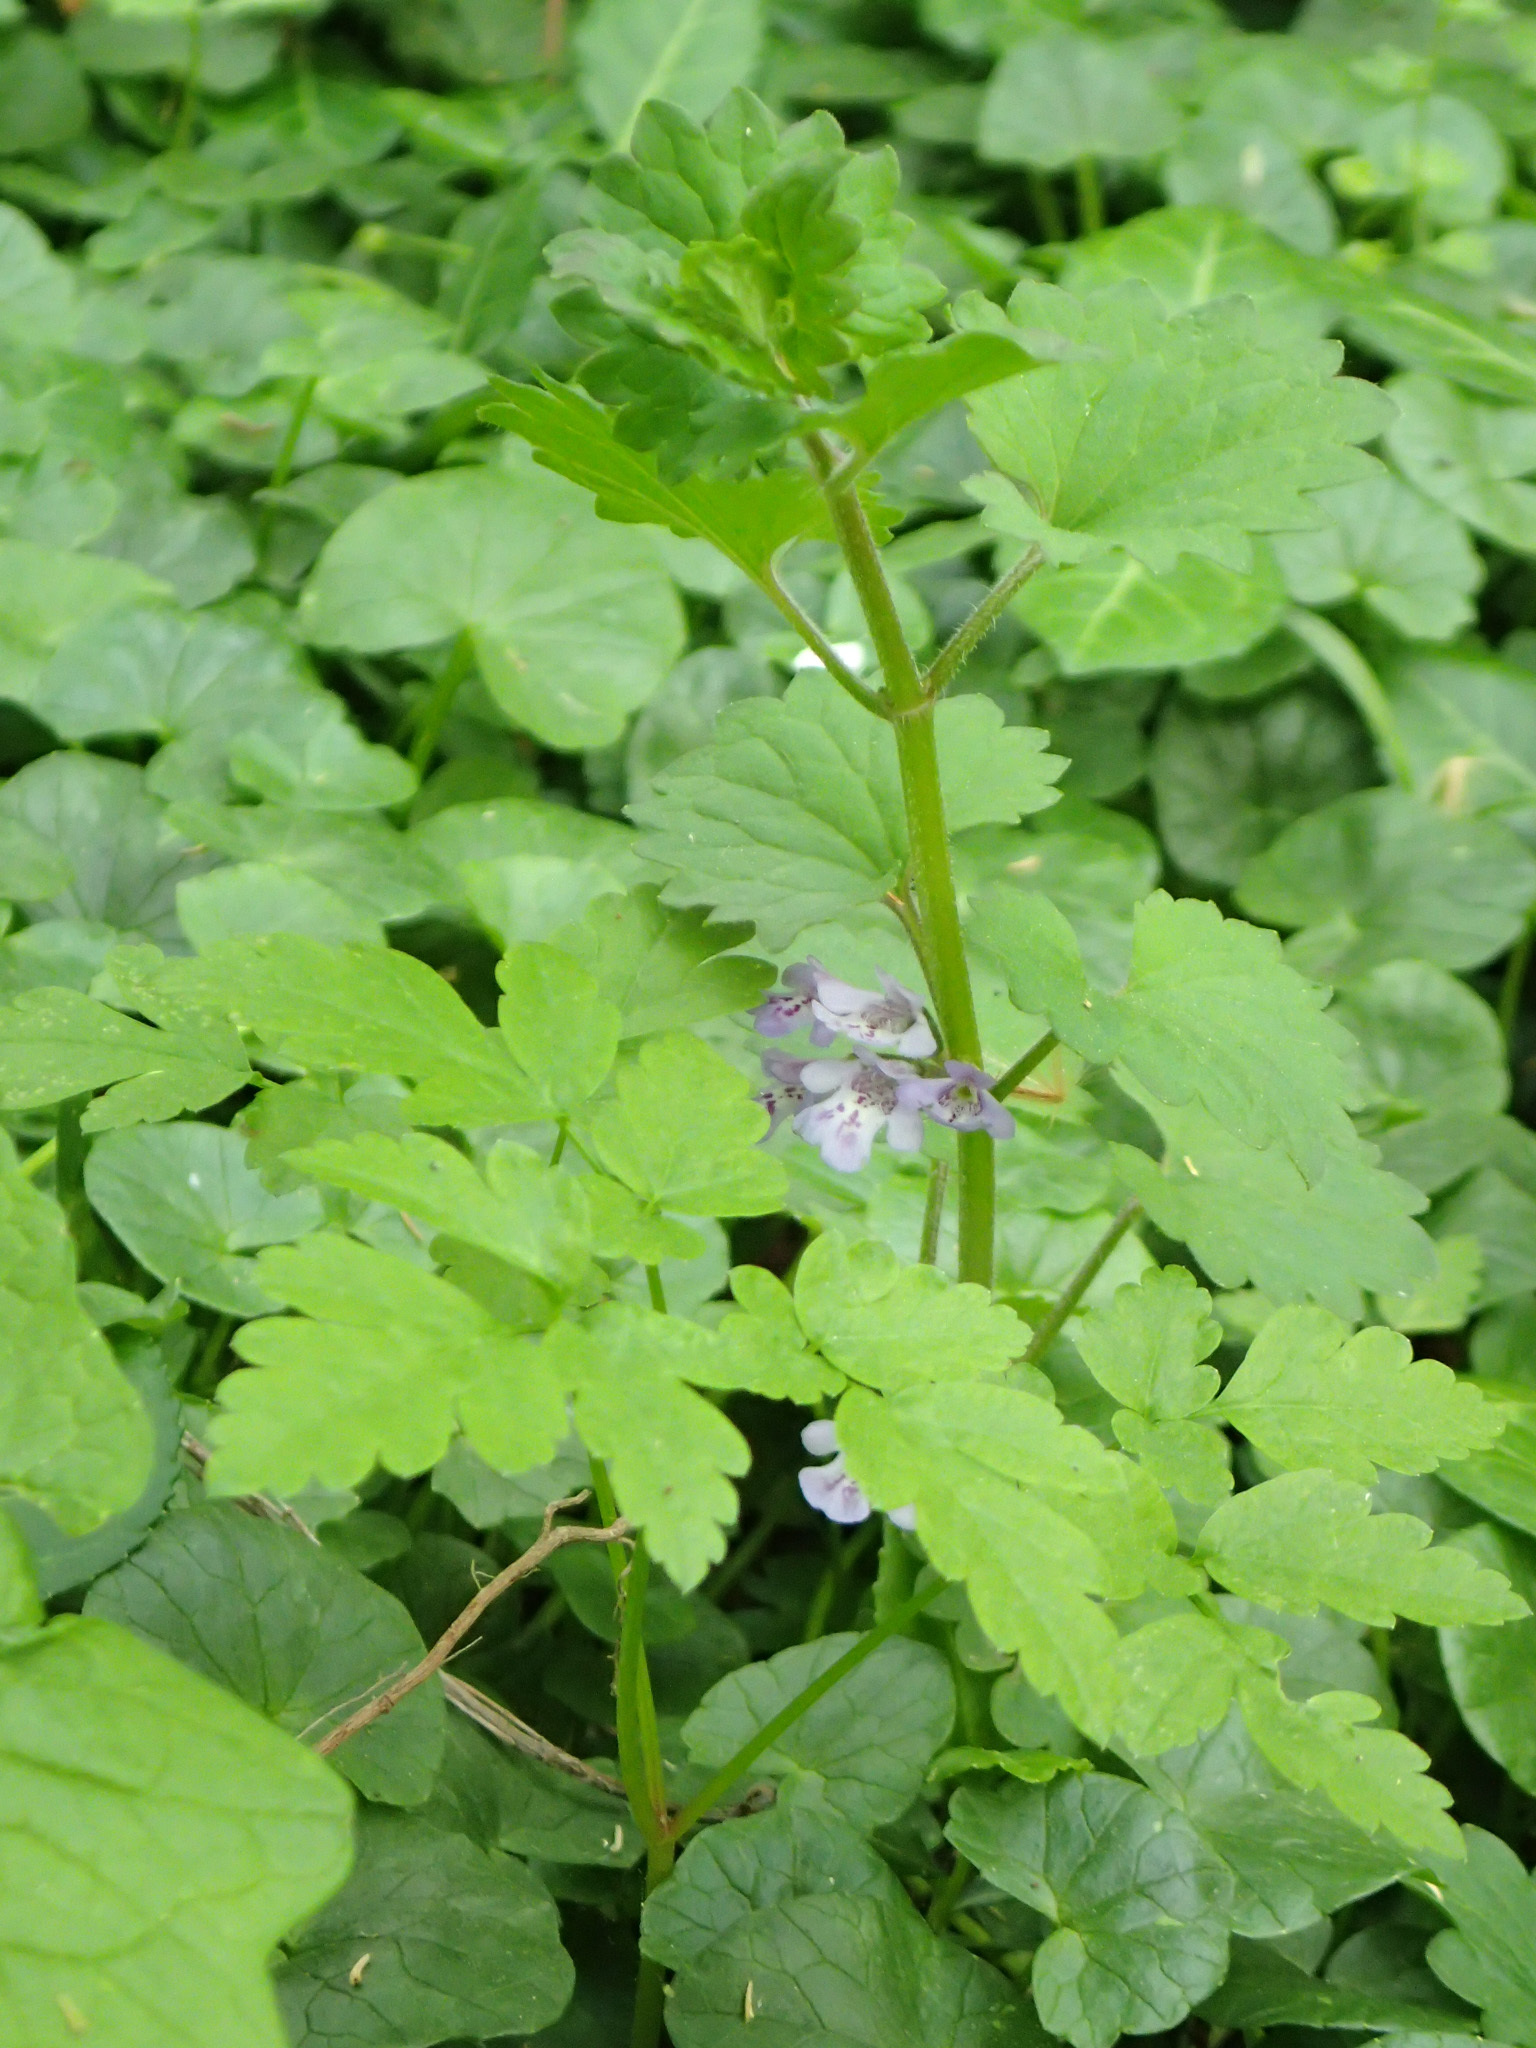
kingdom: Plantae
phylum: Tracheophyta
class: Magnoliopsida
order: Lamiales
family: Lamiaceae
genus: Glechoma
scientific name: Glechoma hederacea
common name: Ground ivy
